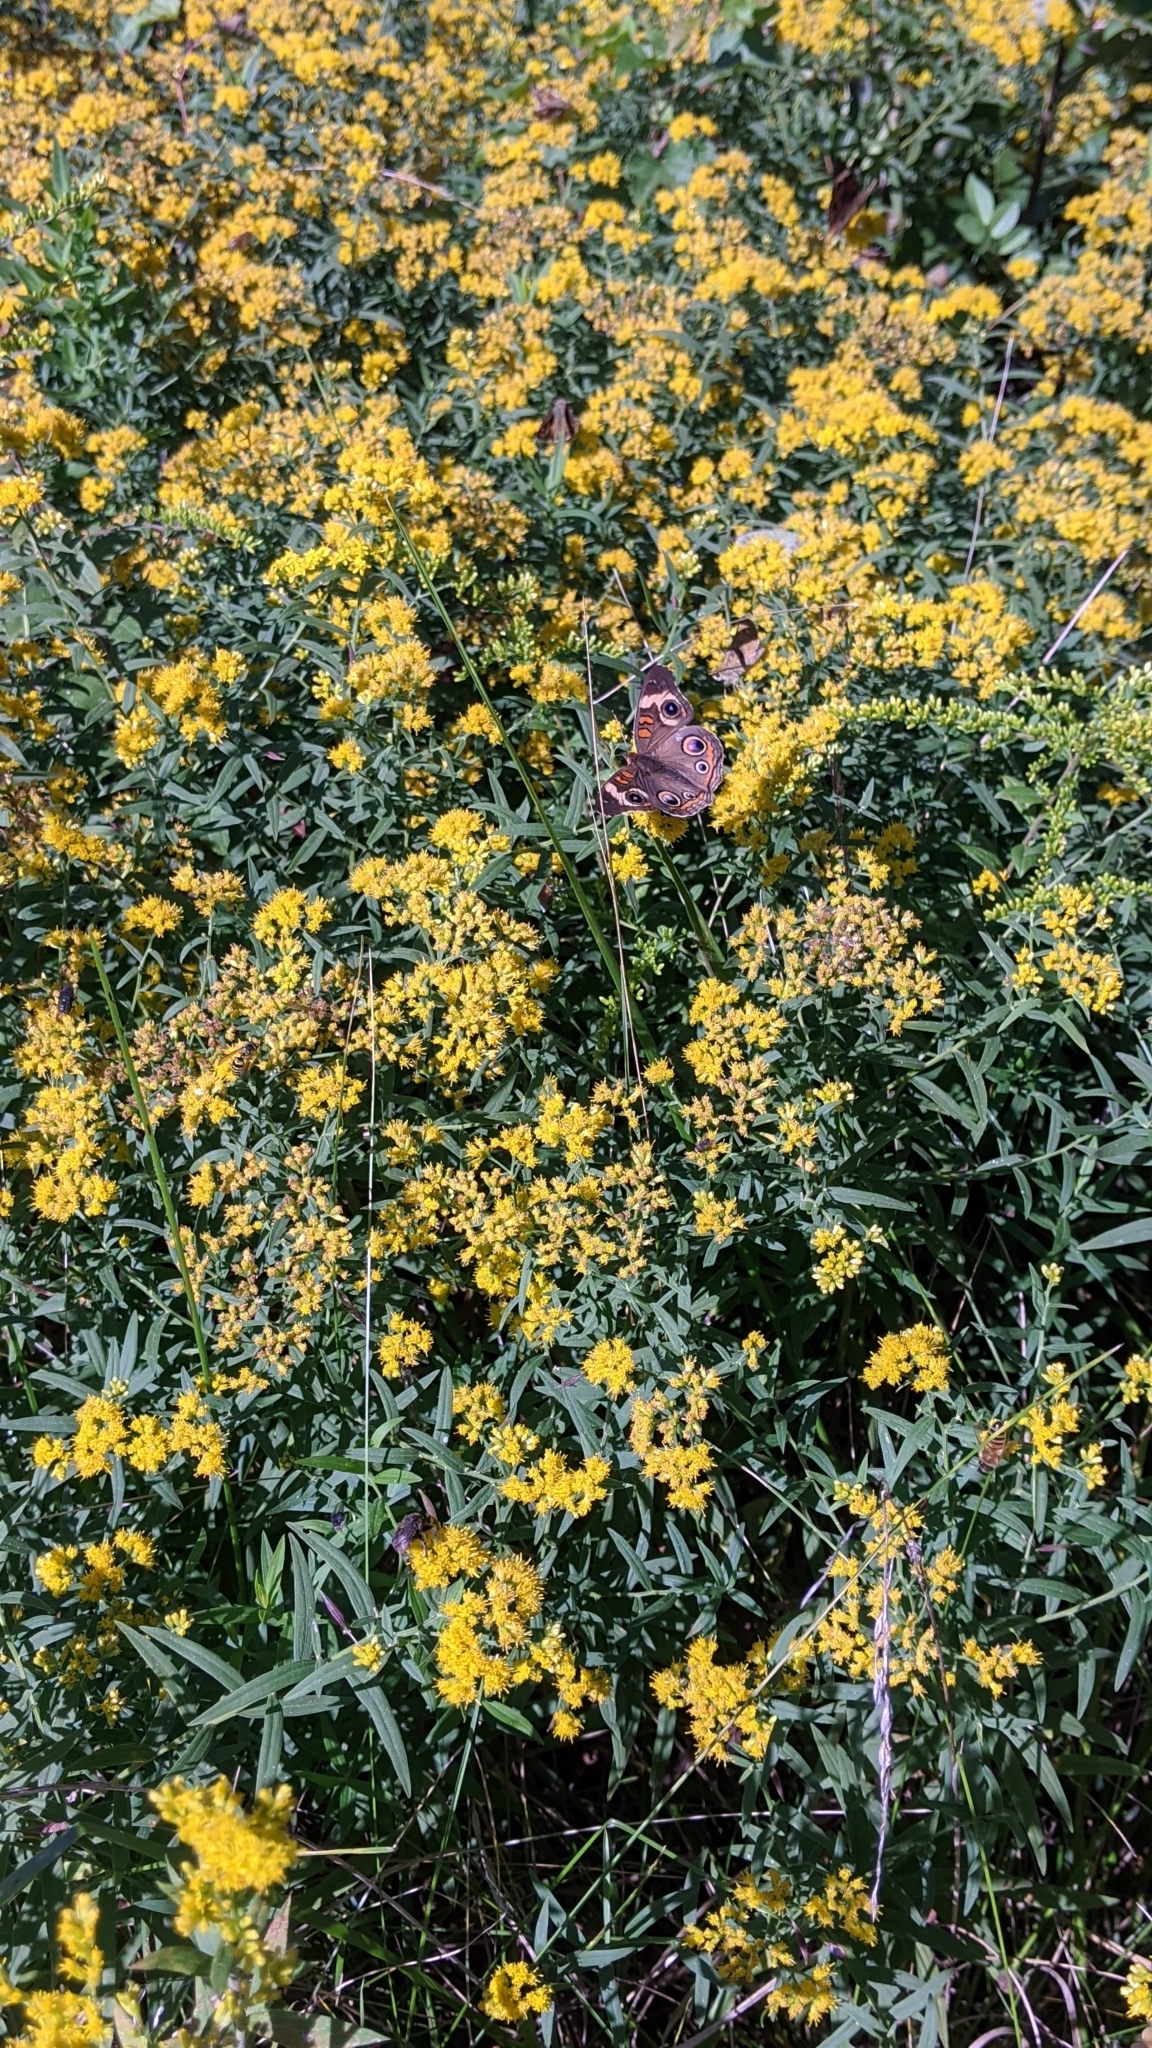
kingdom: Animalia
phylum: Arthropoda
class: Insecta
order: Lepidoptera
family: Nymphalidae
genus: Junonia
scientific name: Junonia coenia
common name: Common buckeye
